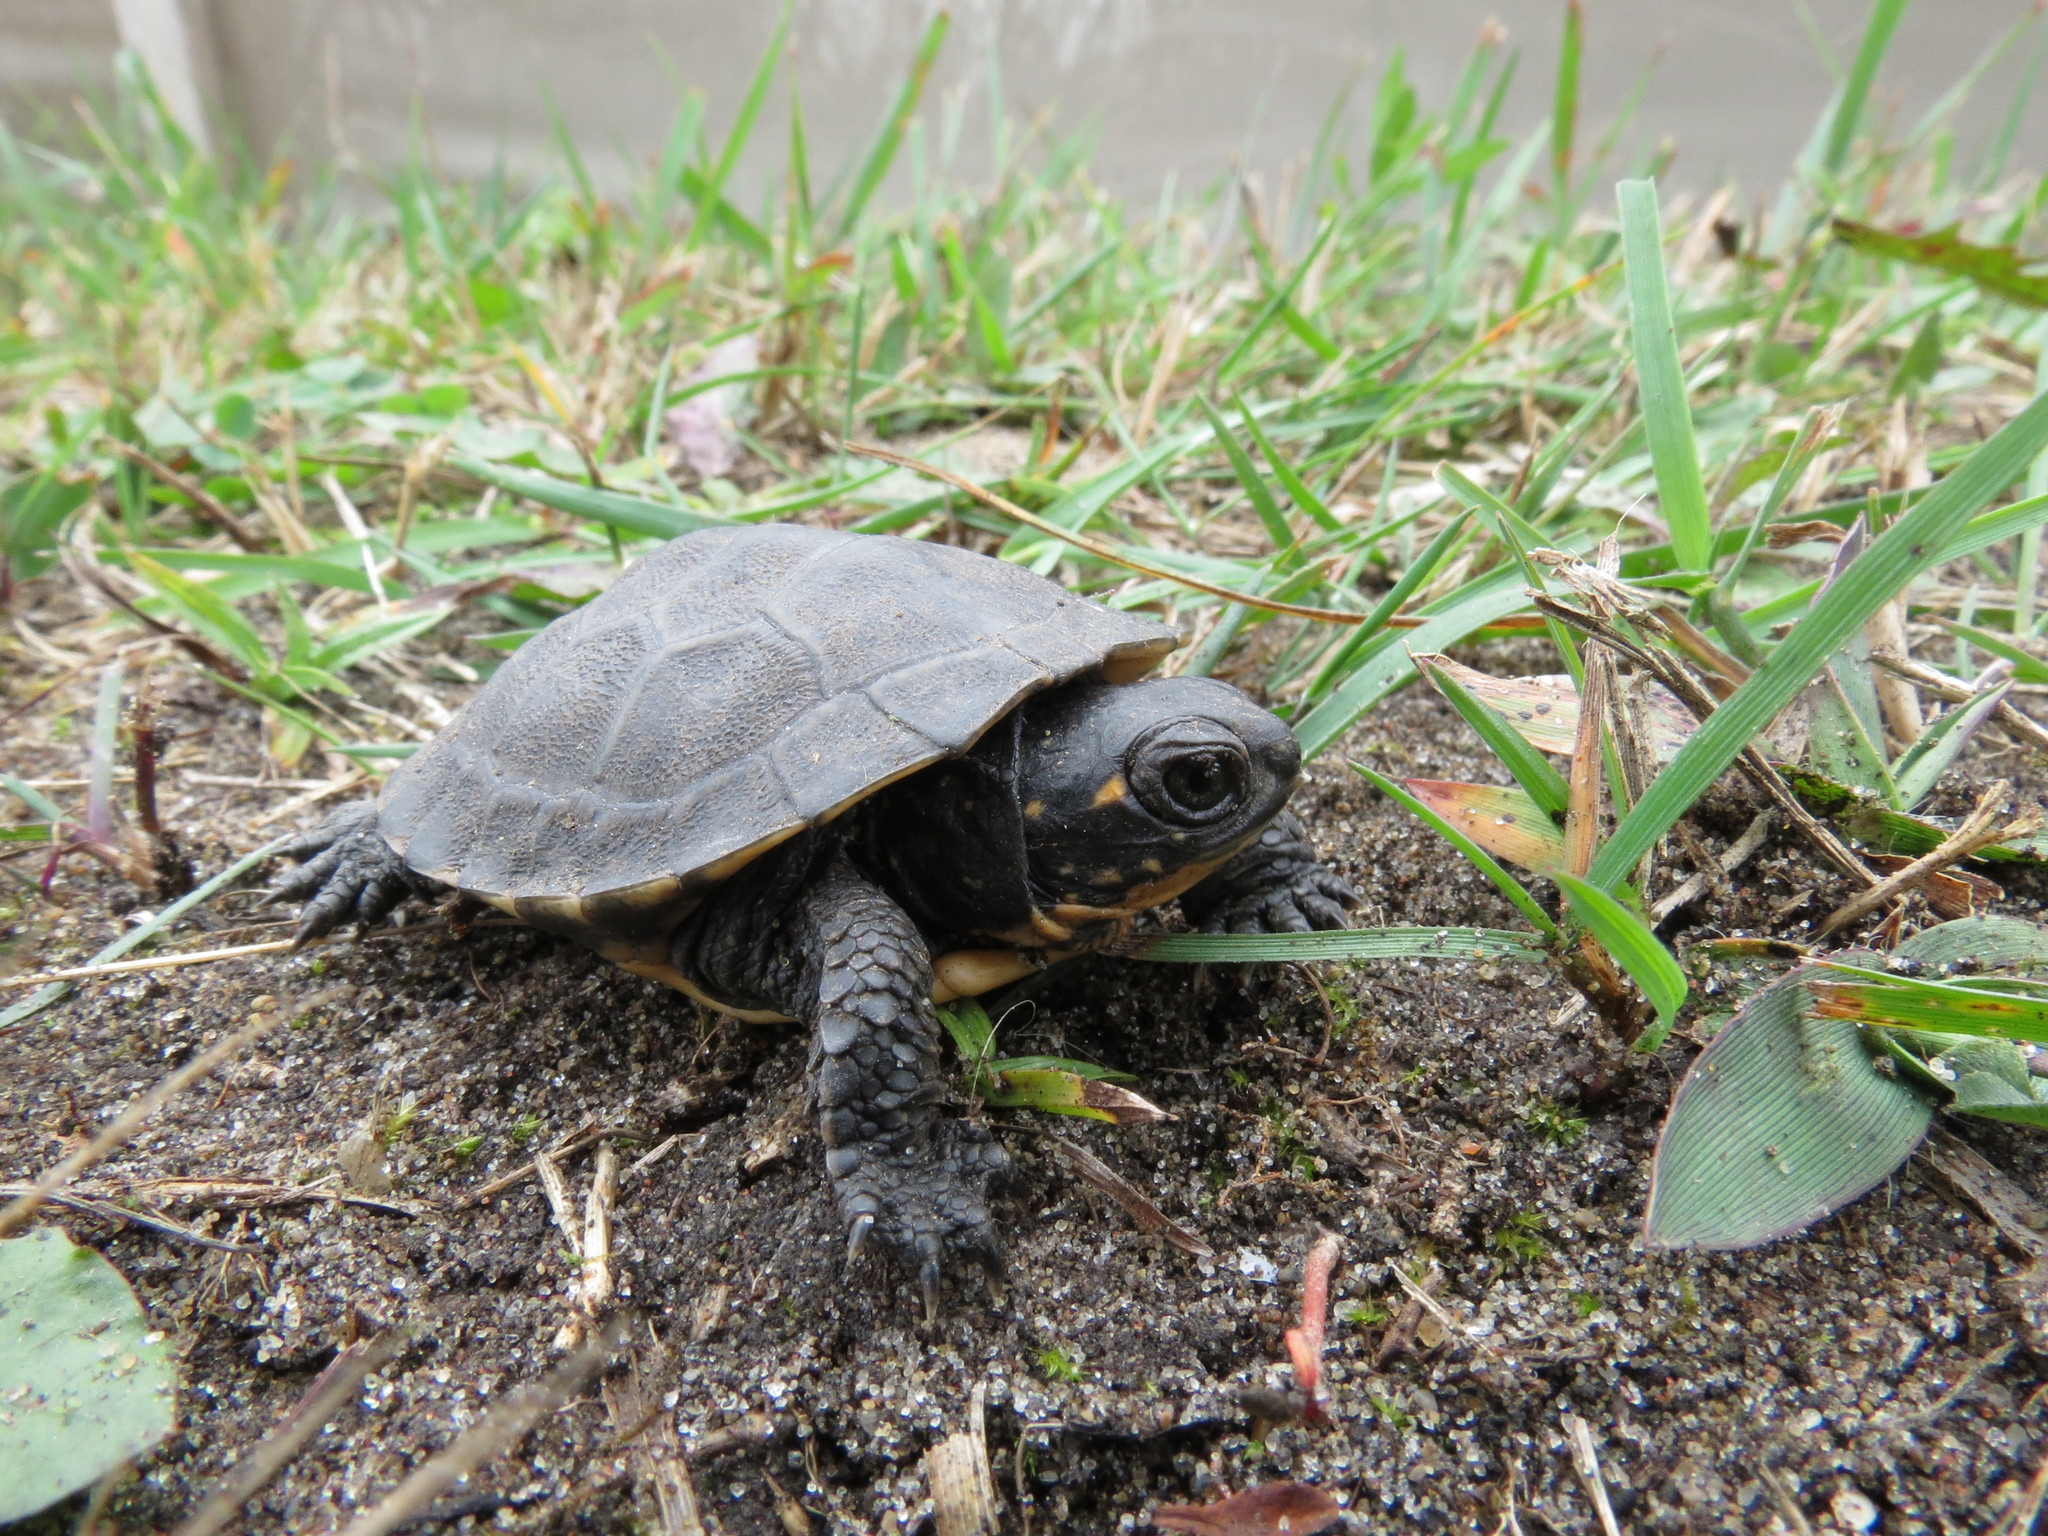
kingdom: Animalia
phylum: Chordata
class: Testudines
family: Emydidae
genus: Emys
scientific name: Emys blandingii
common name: Blanding's turtle
